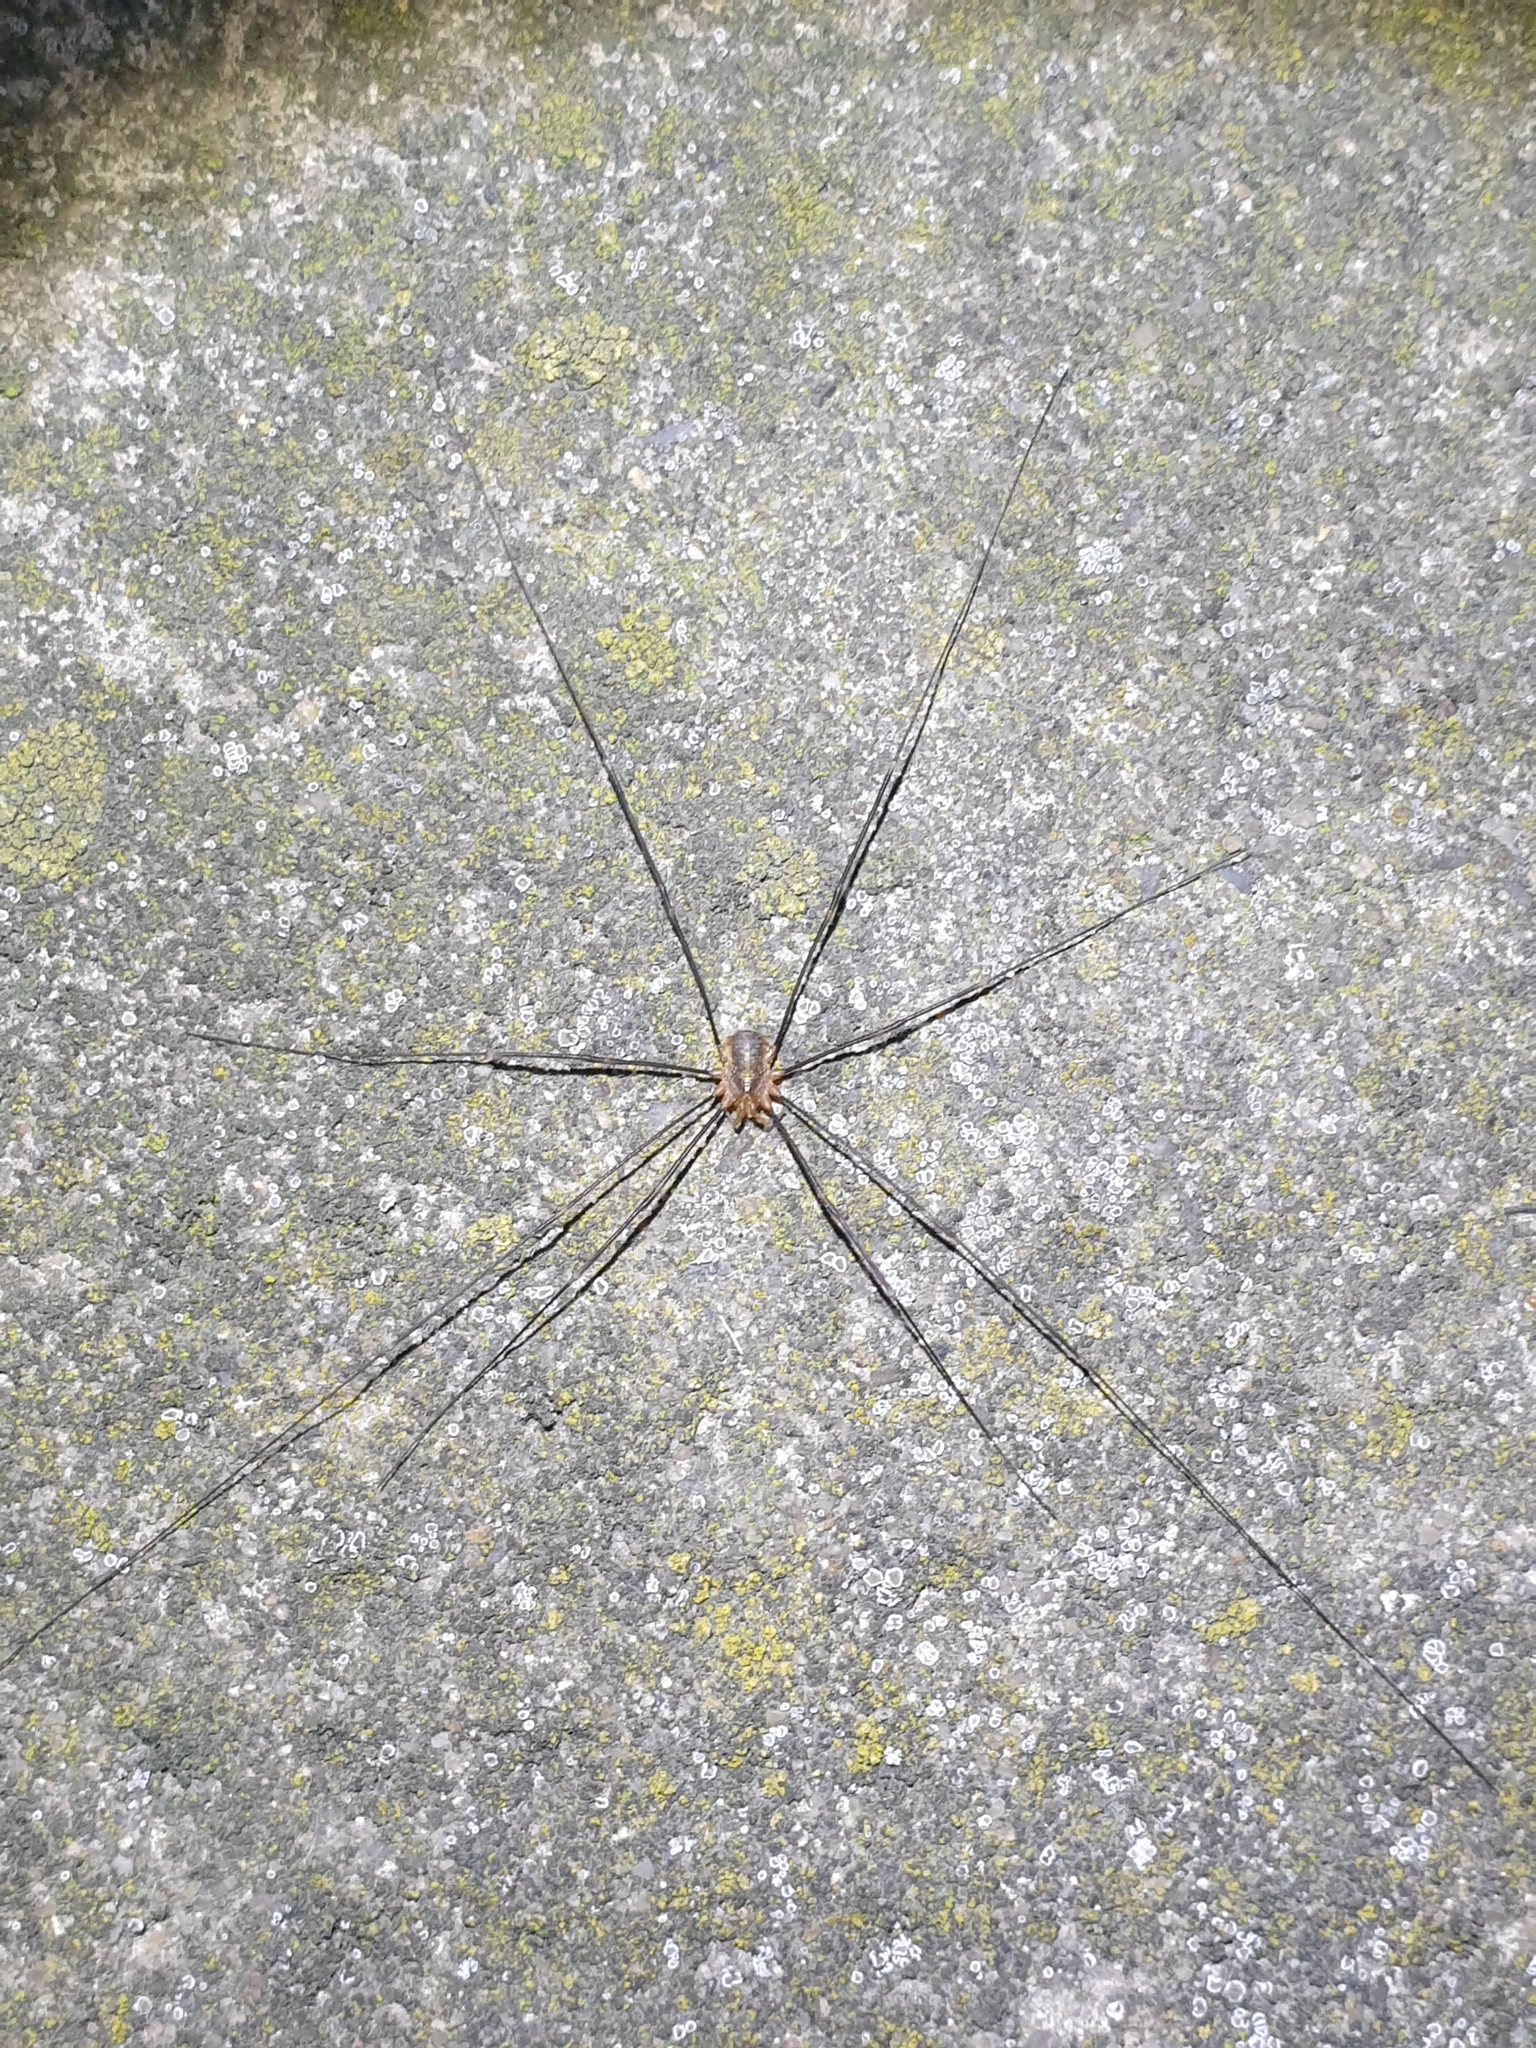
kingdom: Animalia
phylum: Arthropoda
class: Arachnida
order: Opiliones
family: Phalangiidae
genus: Opilio
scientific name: Opilio canestrinii
